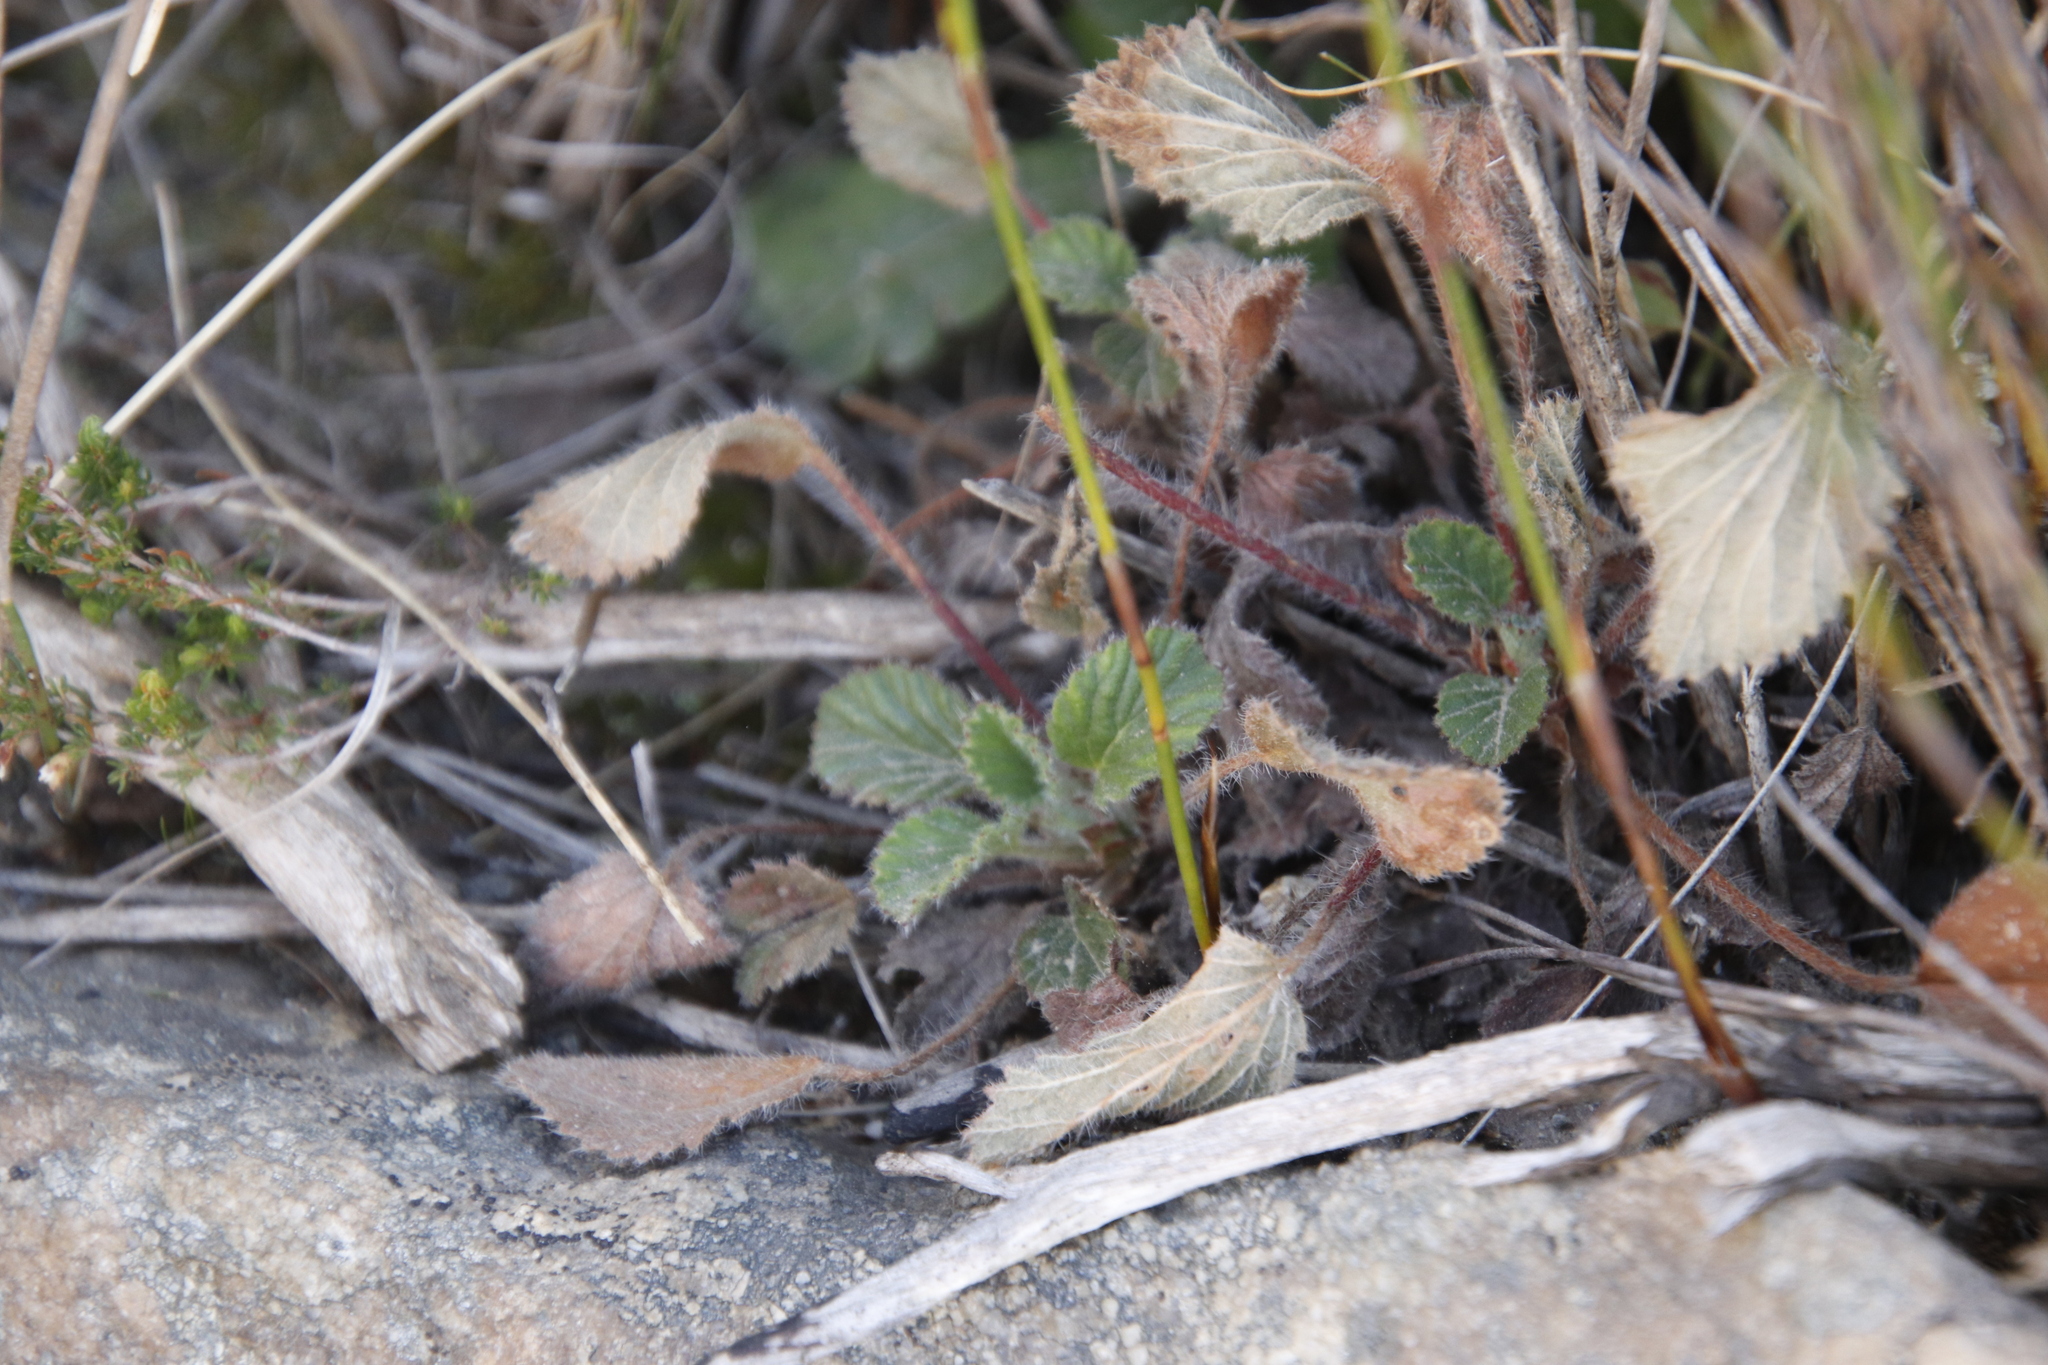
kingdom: Plantae
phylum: Tracheophyta
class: Magnoliopsida
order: Geraniales
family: Geraniaceae
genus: Pelargonium
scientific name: Pelargonium ovale
